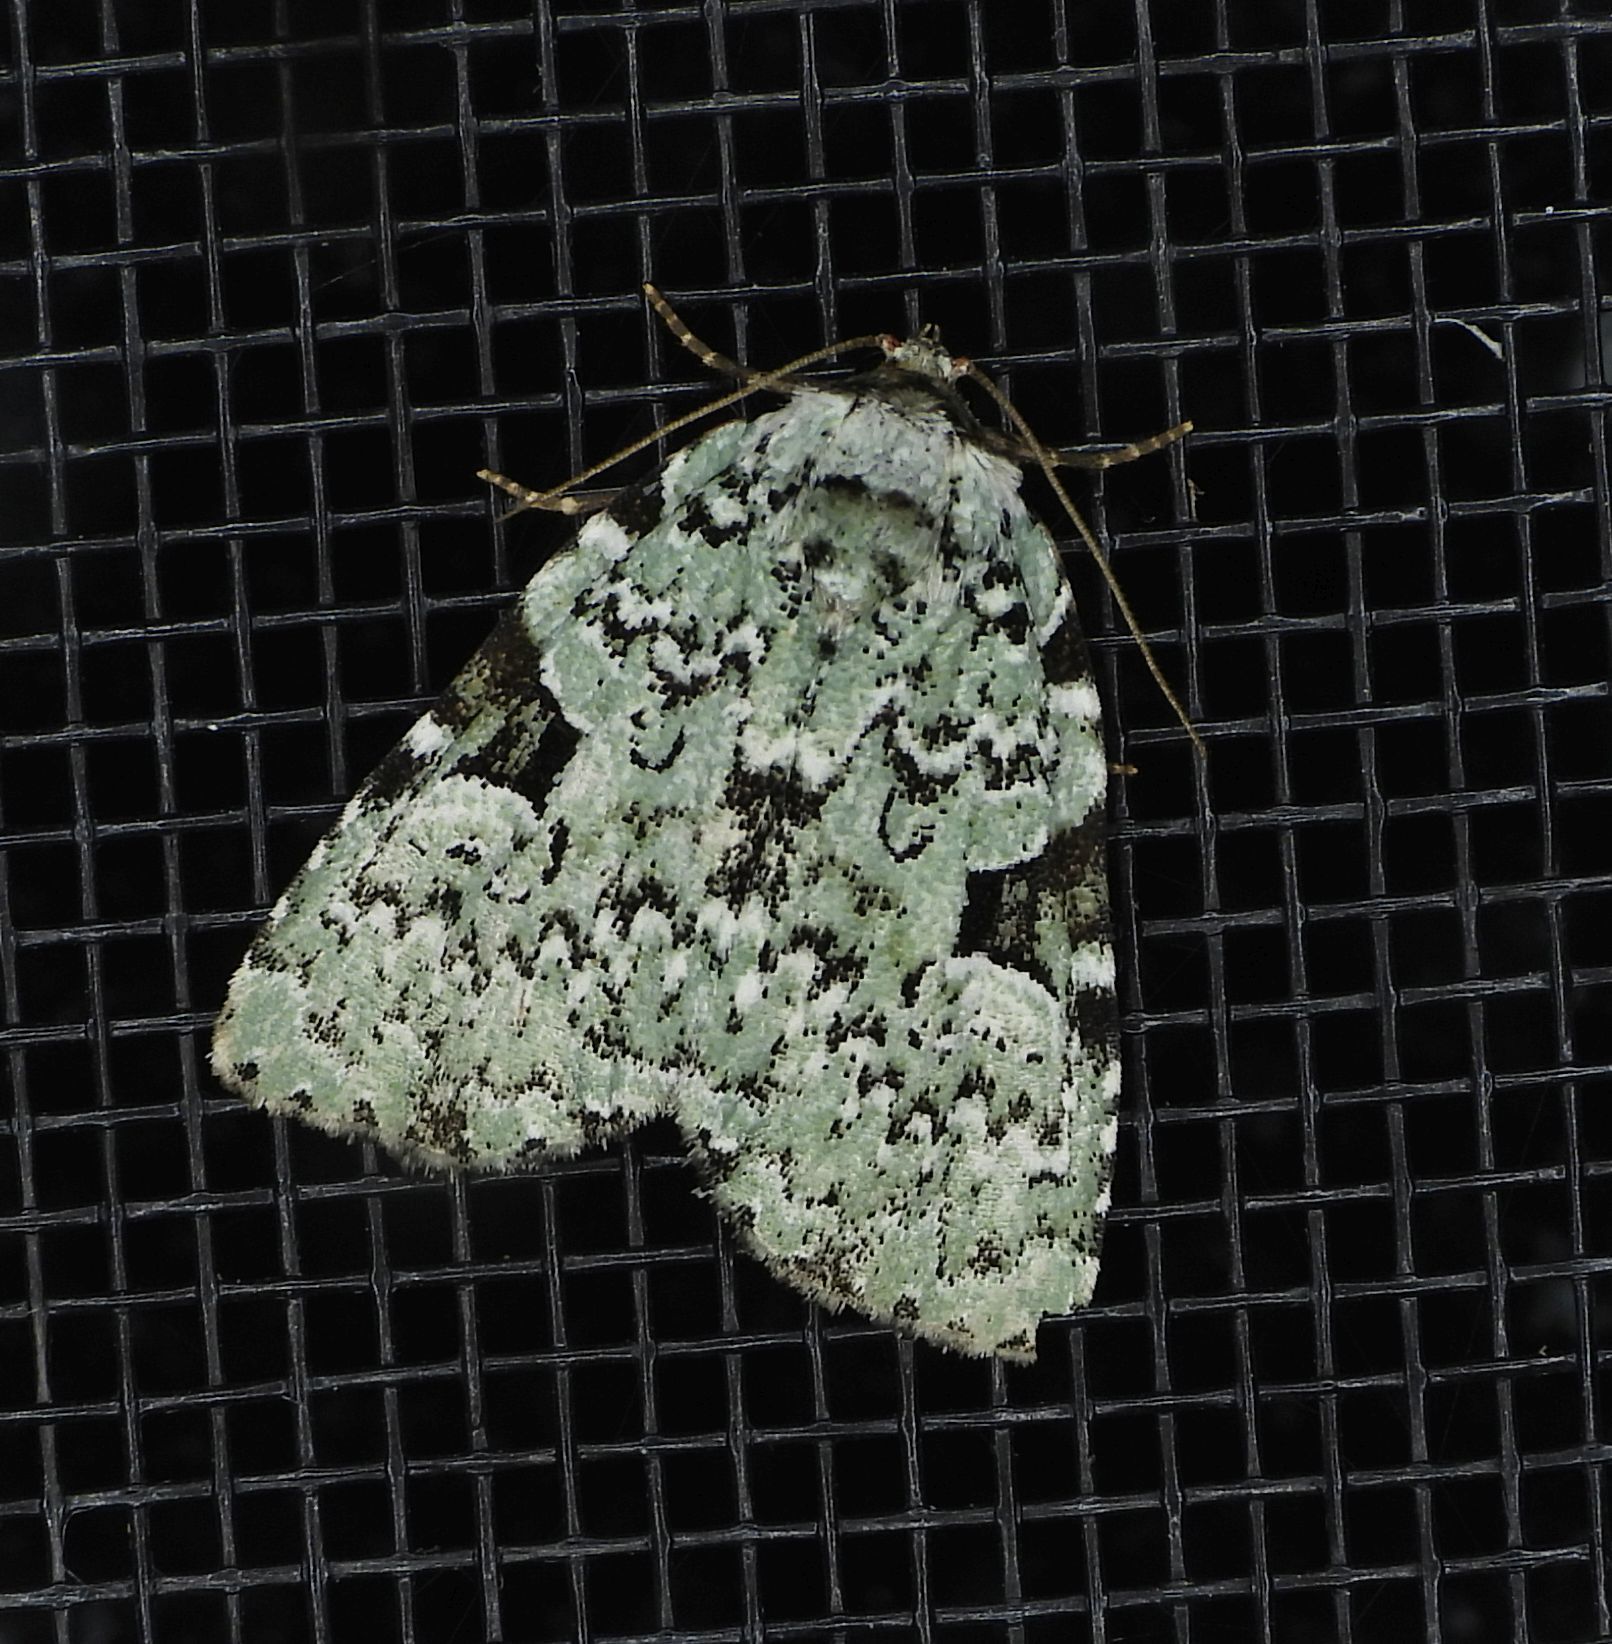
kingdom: Animalia
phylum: Arthropoda
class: Insecta
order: Lepidoptera
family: Noctuidae
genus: Leuconycta
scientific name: Leuconycta diphteroides
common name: Green leuconycta moth
